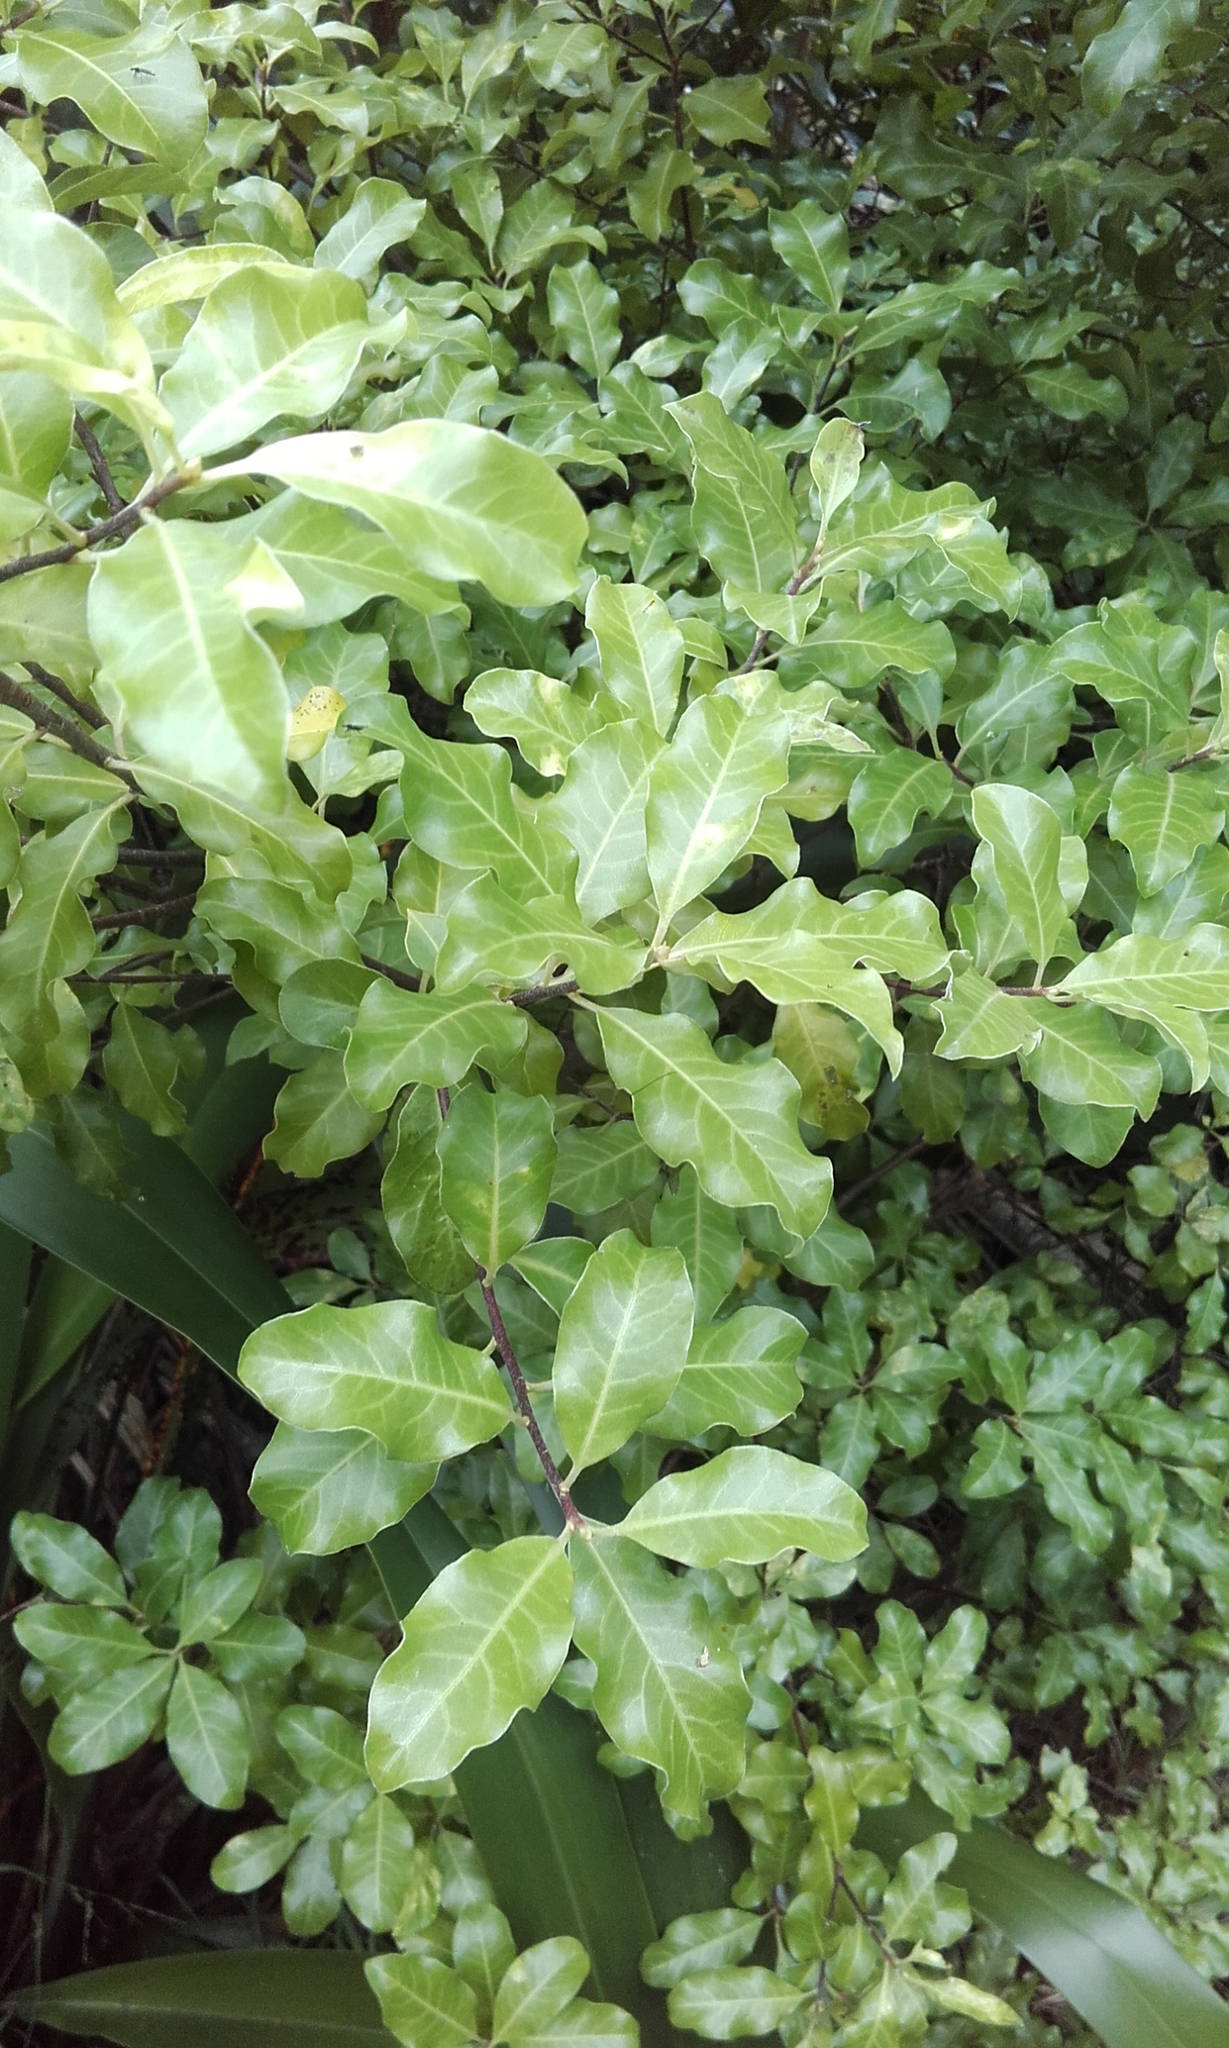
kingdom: Plantae
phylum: Tracheophyta
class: Magnoliopsida
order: Apiales
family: Pittosporaceae
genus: Pittosporum
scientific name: Pittosporum tenuifolium
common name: Kohuhu
